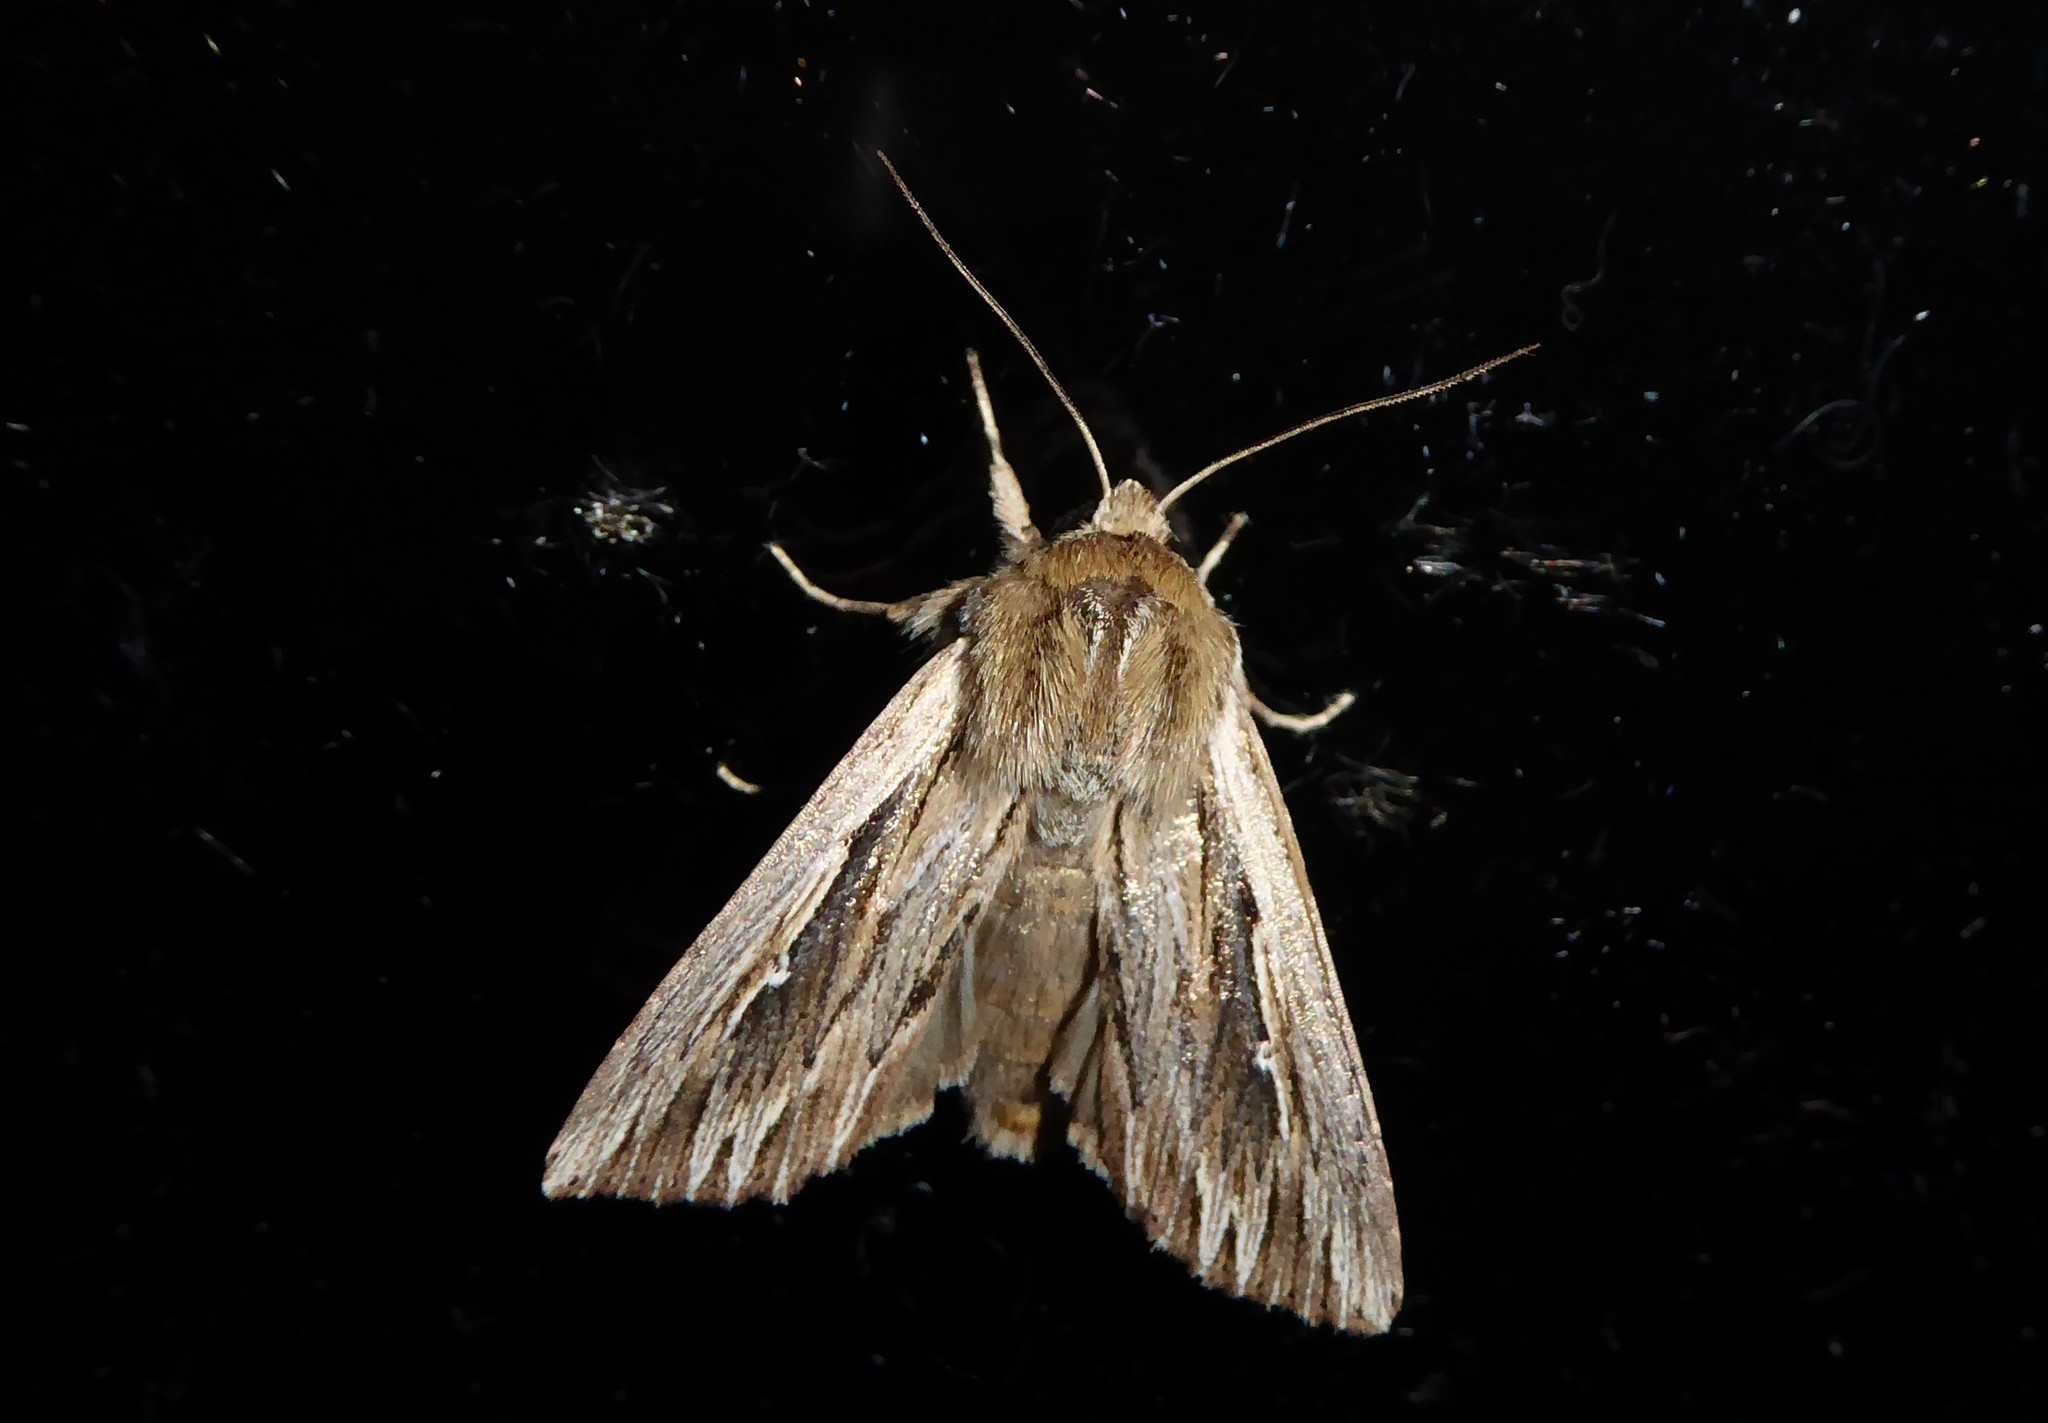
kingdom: Animalia
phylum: Arthropoda
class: Insecta
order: Lepidoptera
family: Noctuidae
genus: Persectania
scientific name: Persectania aversa
